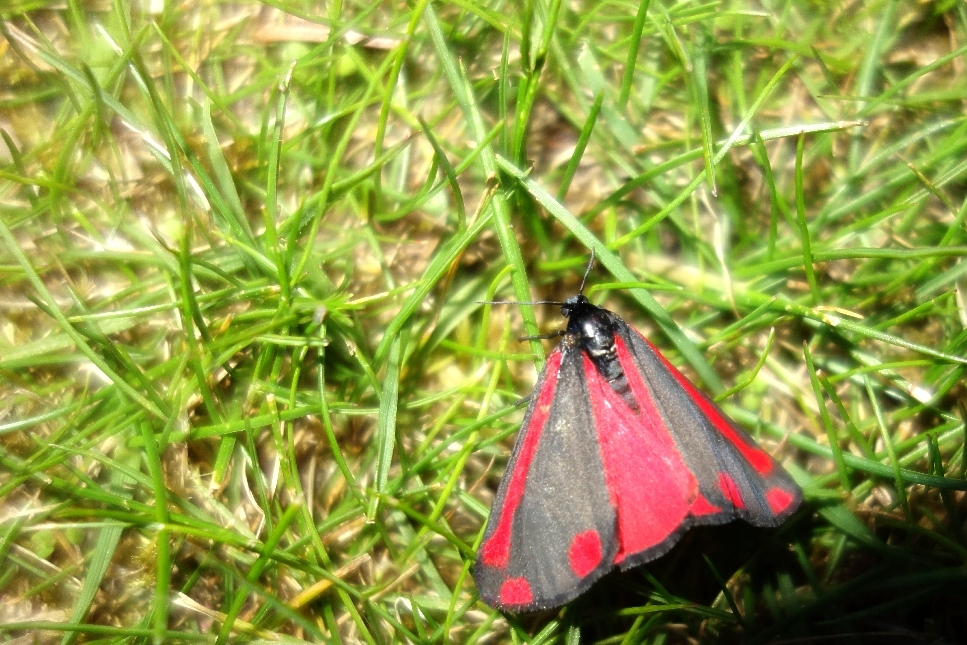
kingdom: Animalia
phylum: Arthropoda
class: Insecta
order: Lepidoptera
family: Erebidae
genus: Tyria
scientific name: Tyria jacobaeae
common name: Cinnabar
